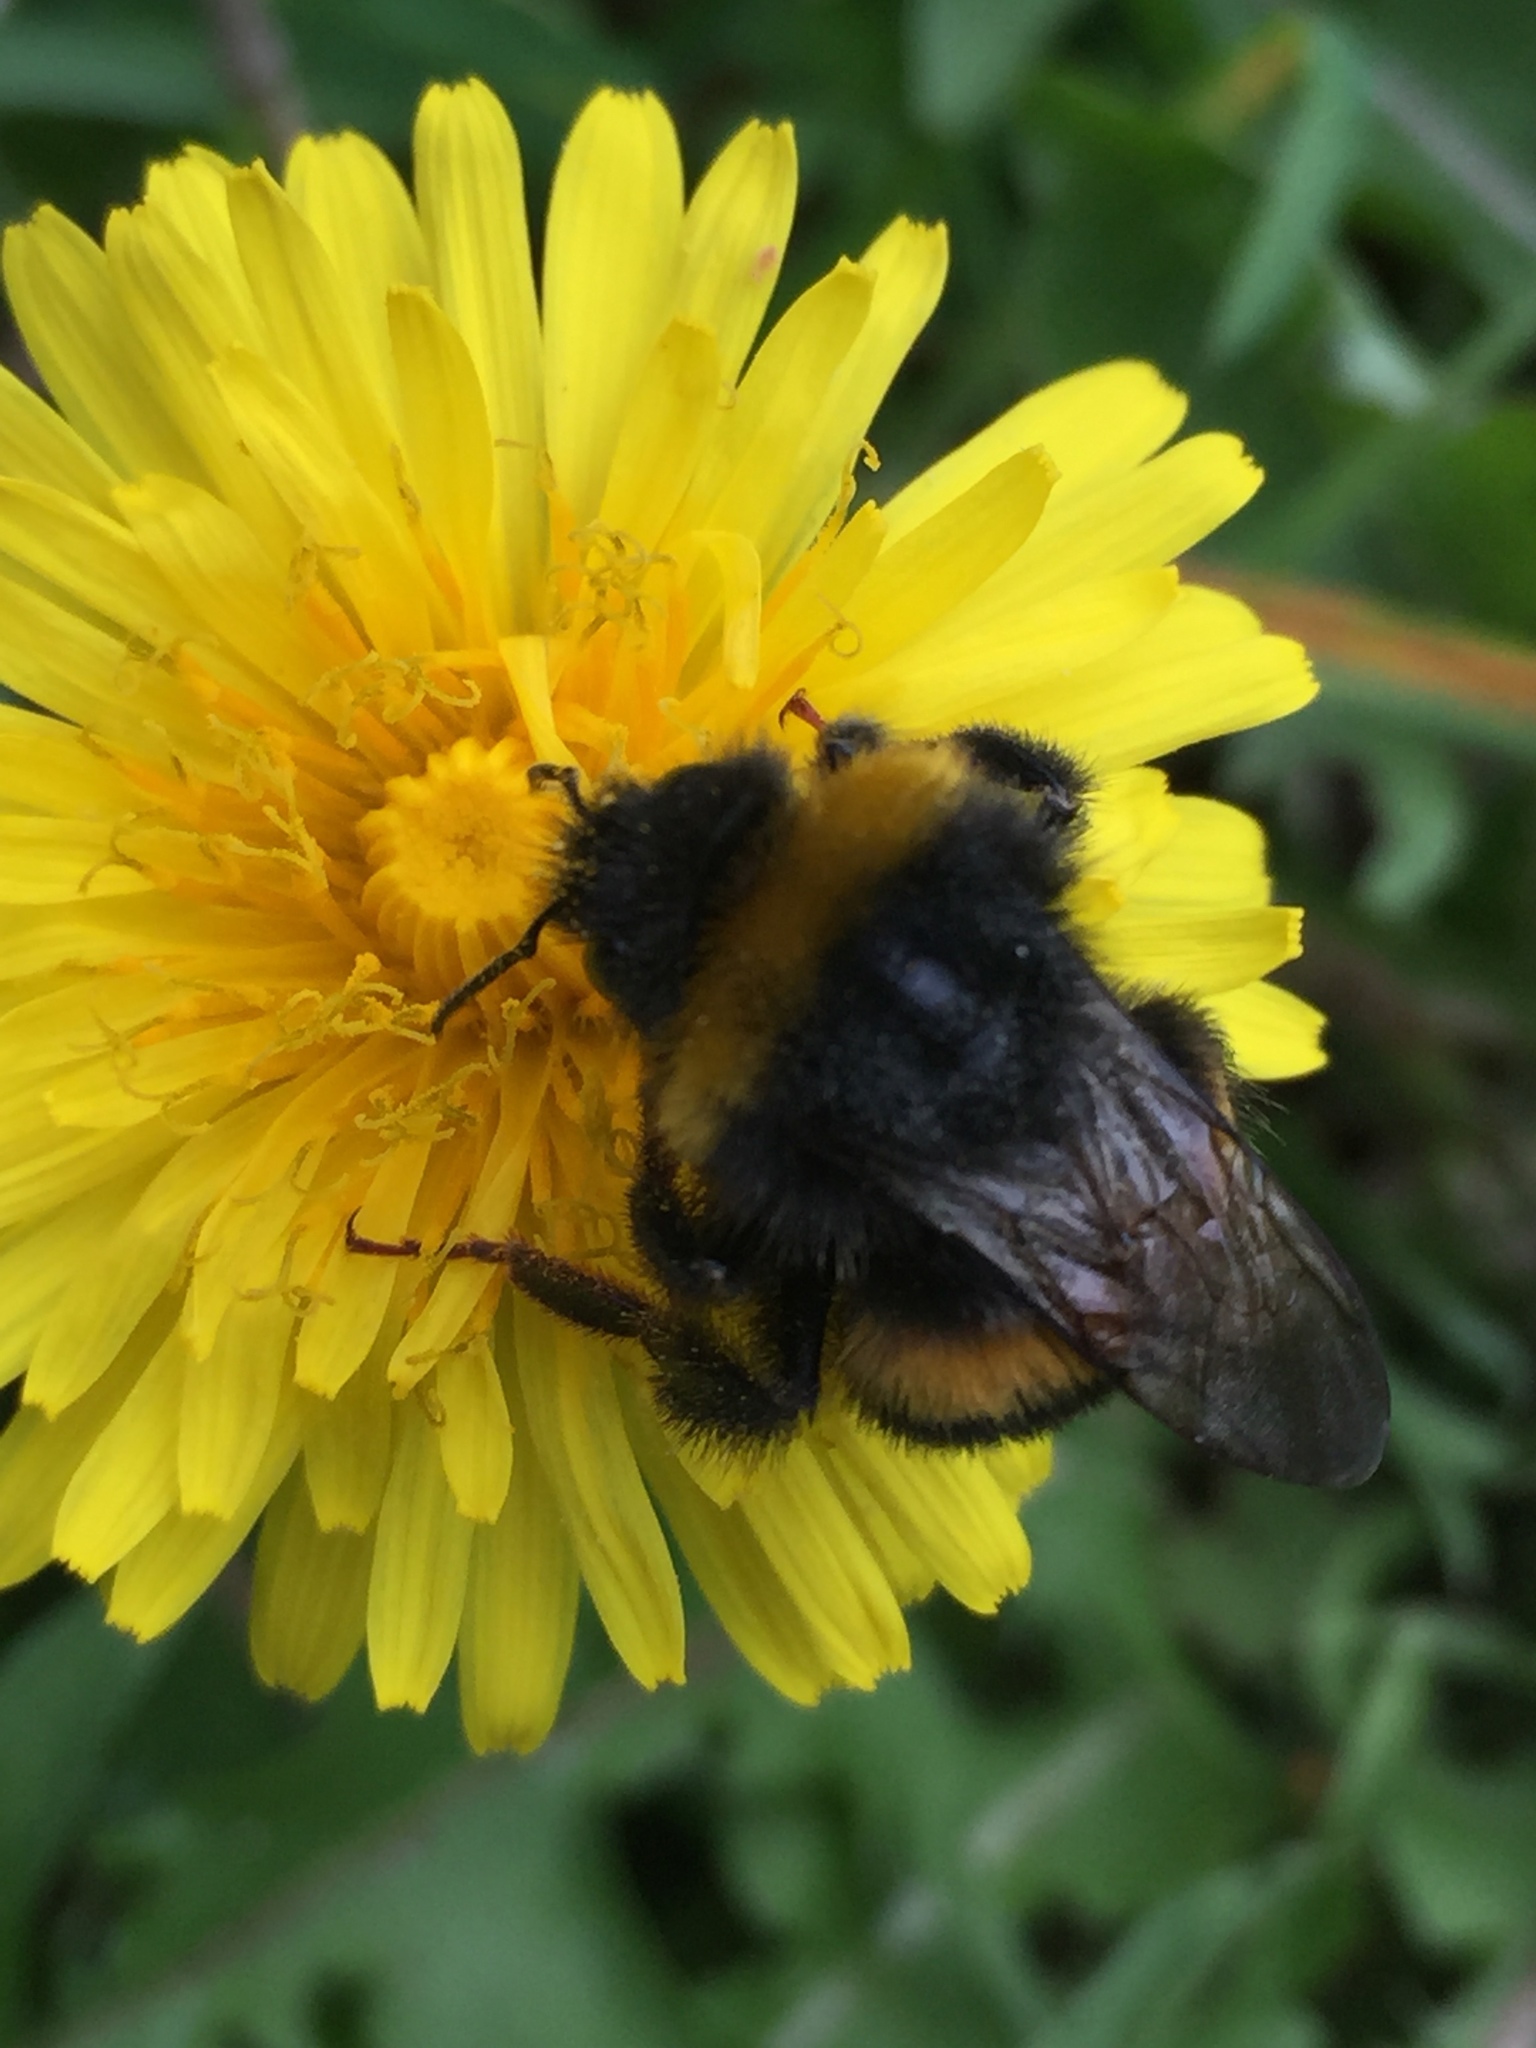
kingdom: Animalia
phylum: Arthropoda
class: Insecta
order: Hymenoptera
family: Apidae
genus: Bombus
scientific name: Bombus terrestris
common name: Buff-tailed bumblebee
